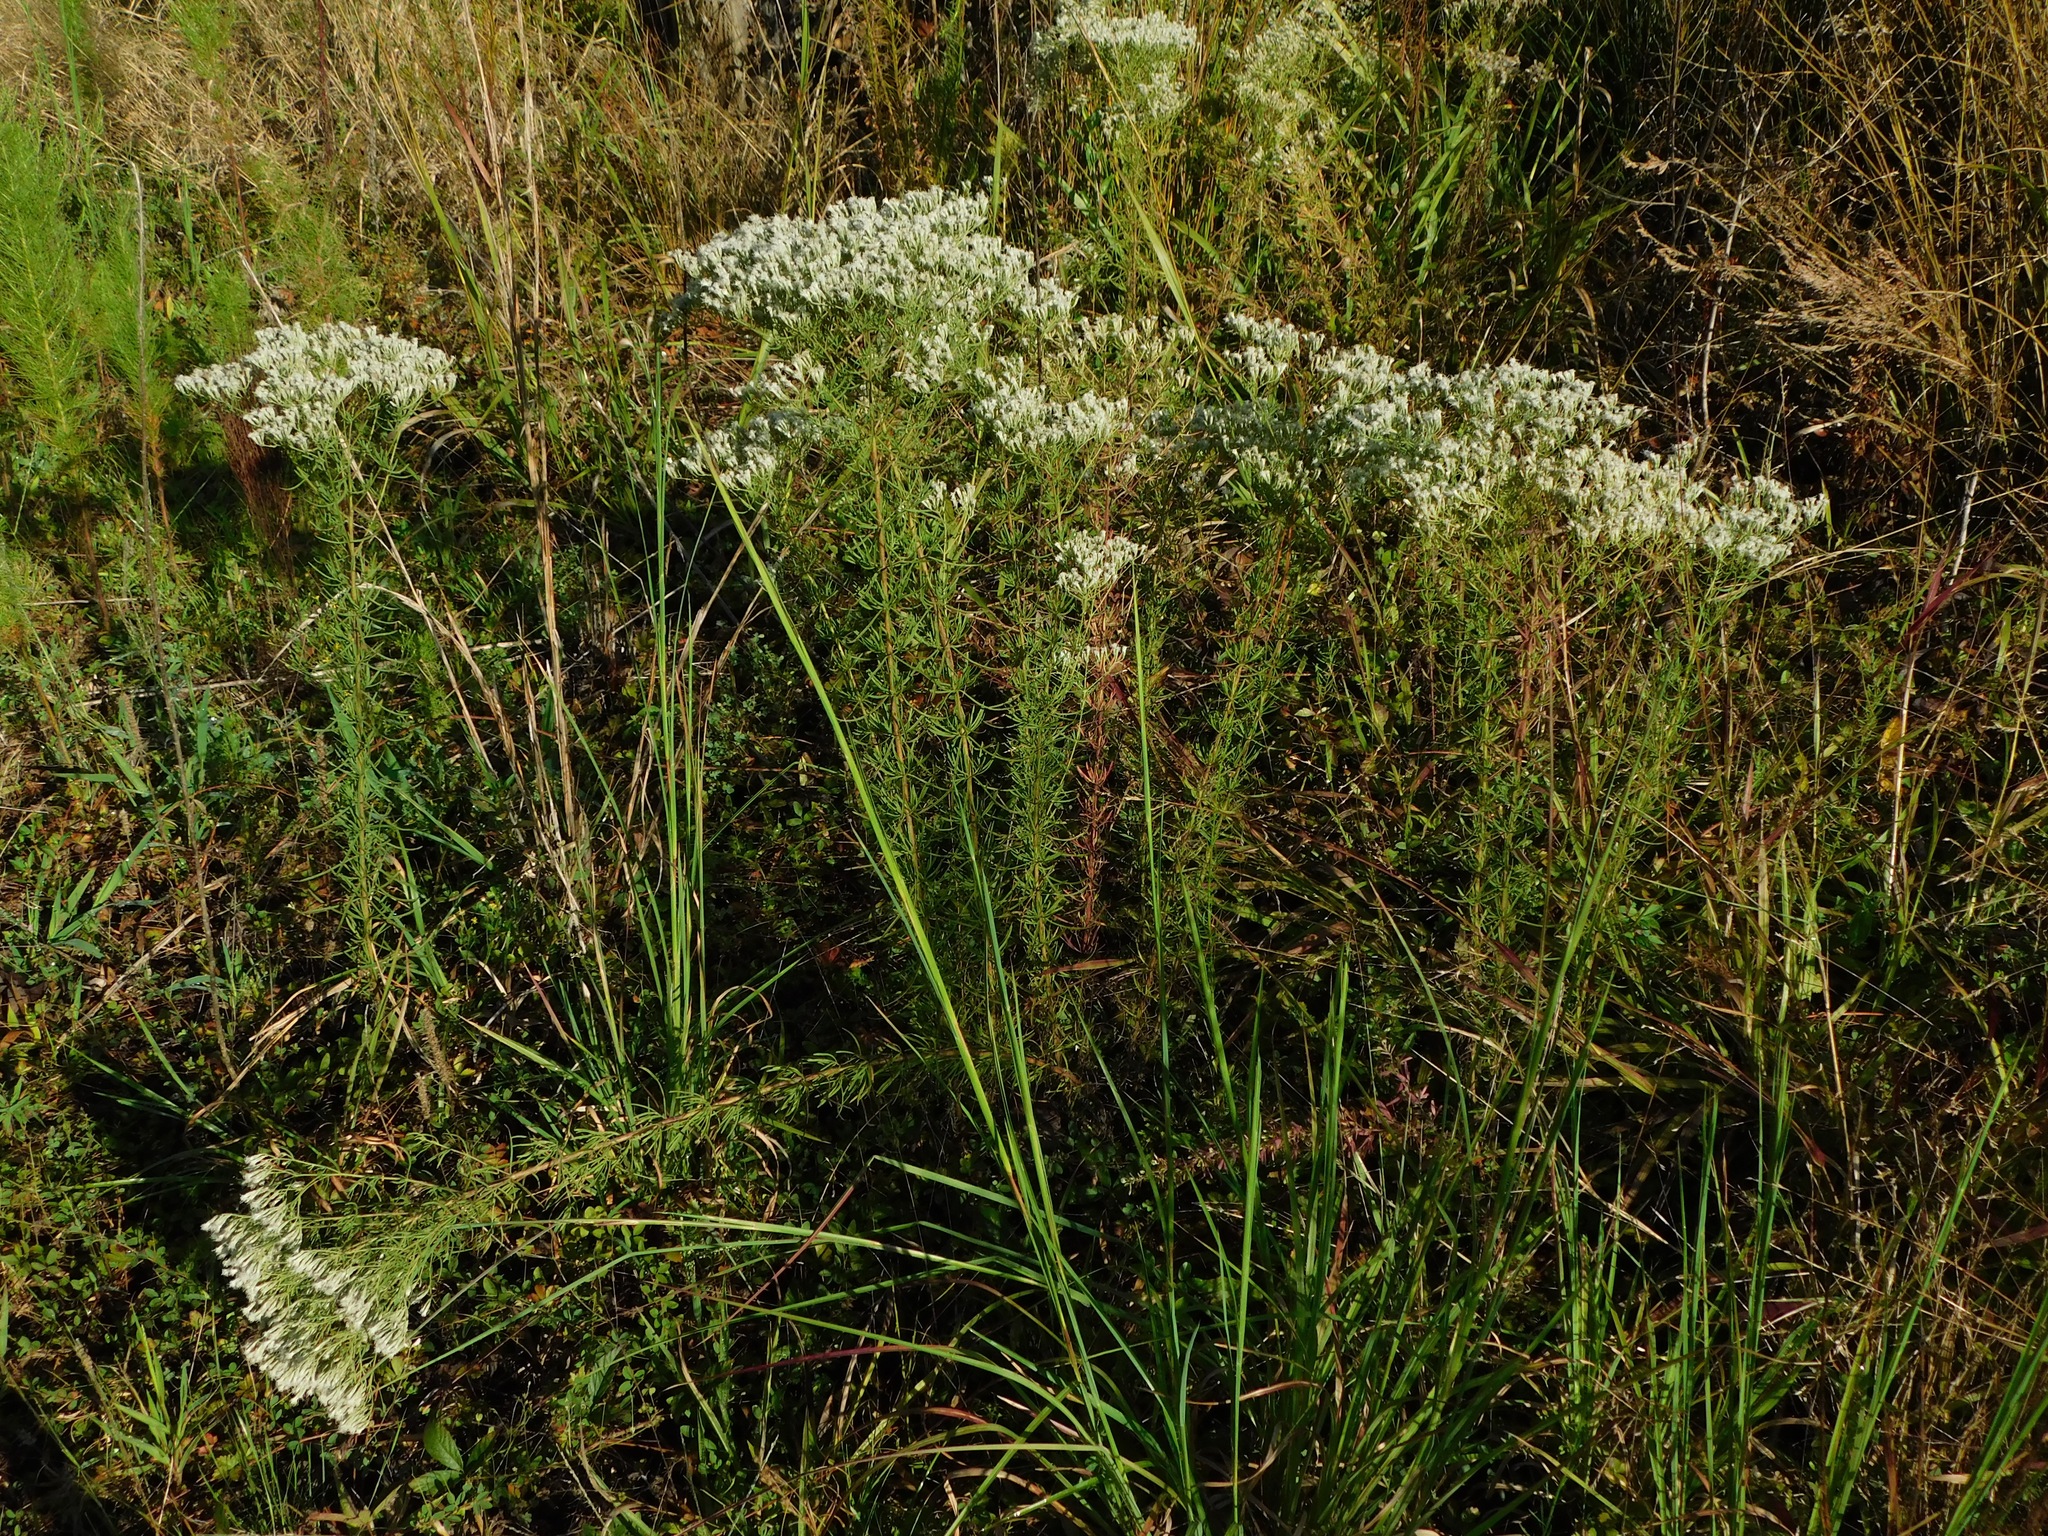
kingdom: Plantae
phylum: Tracheophyta
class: Magnoliopsida
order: Asterales
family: Asteraceae
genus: Eupatorium
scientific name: Eupatorium hyssopifolium
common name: Hyssop-leaf thoroughwort
